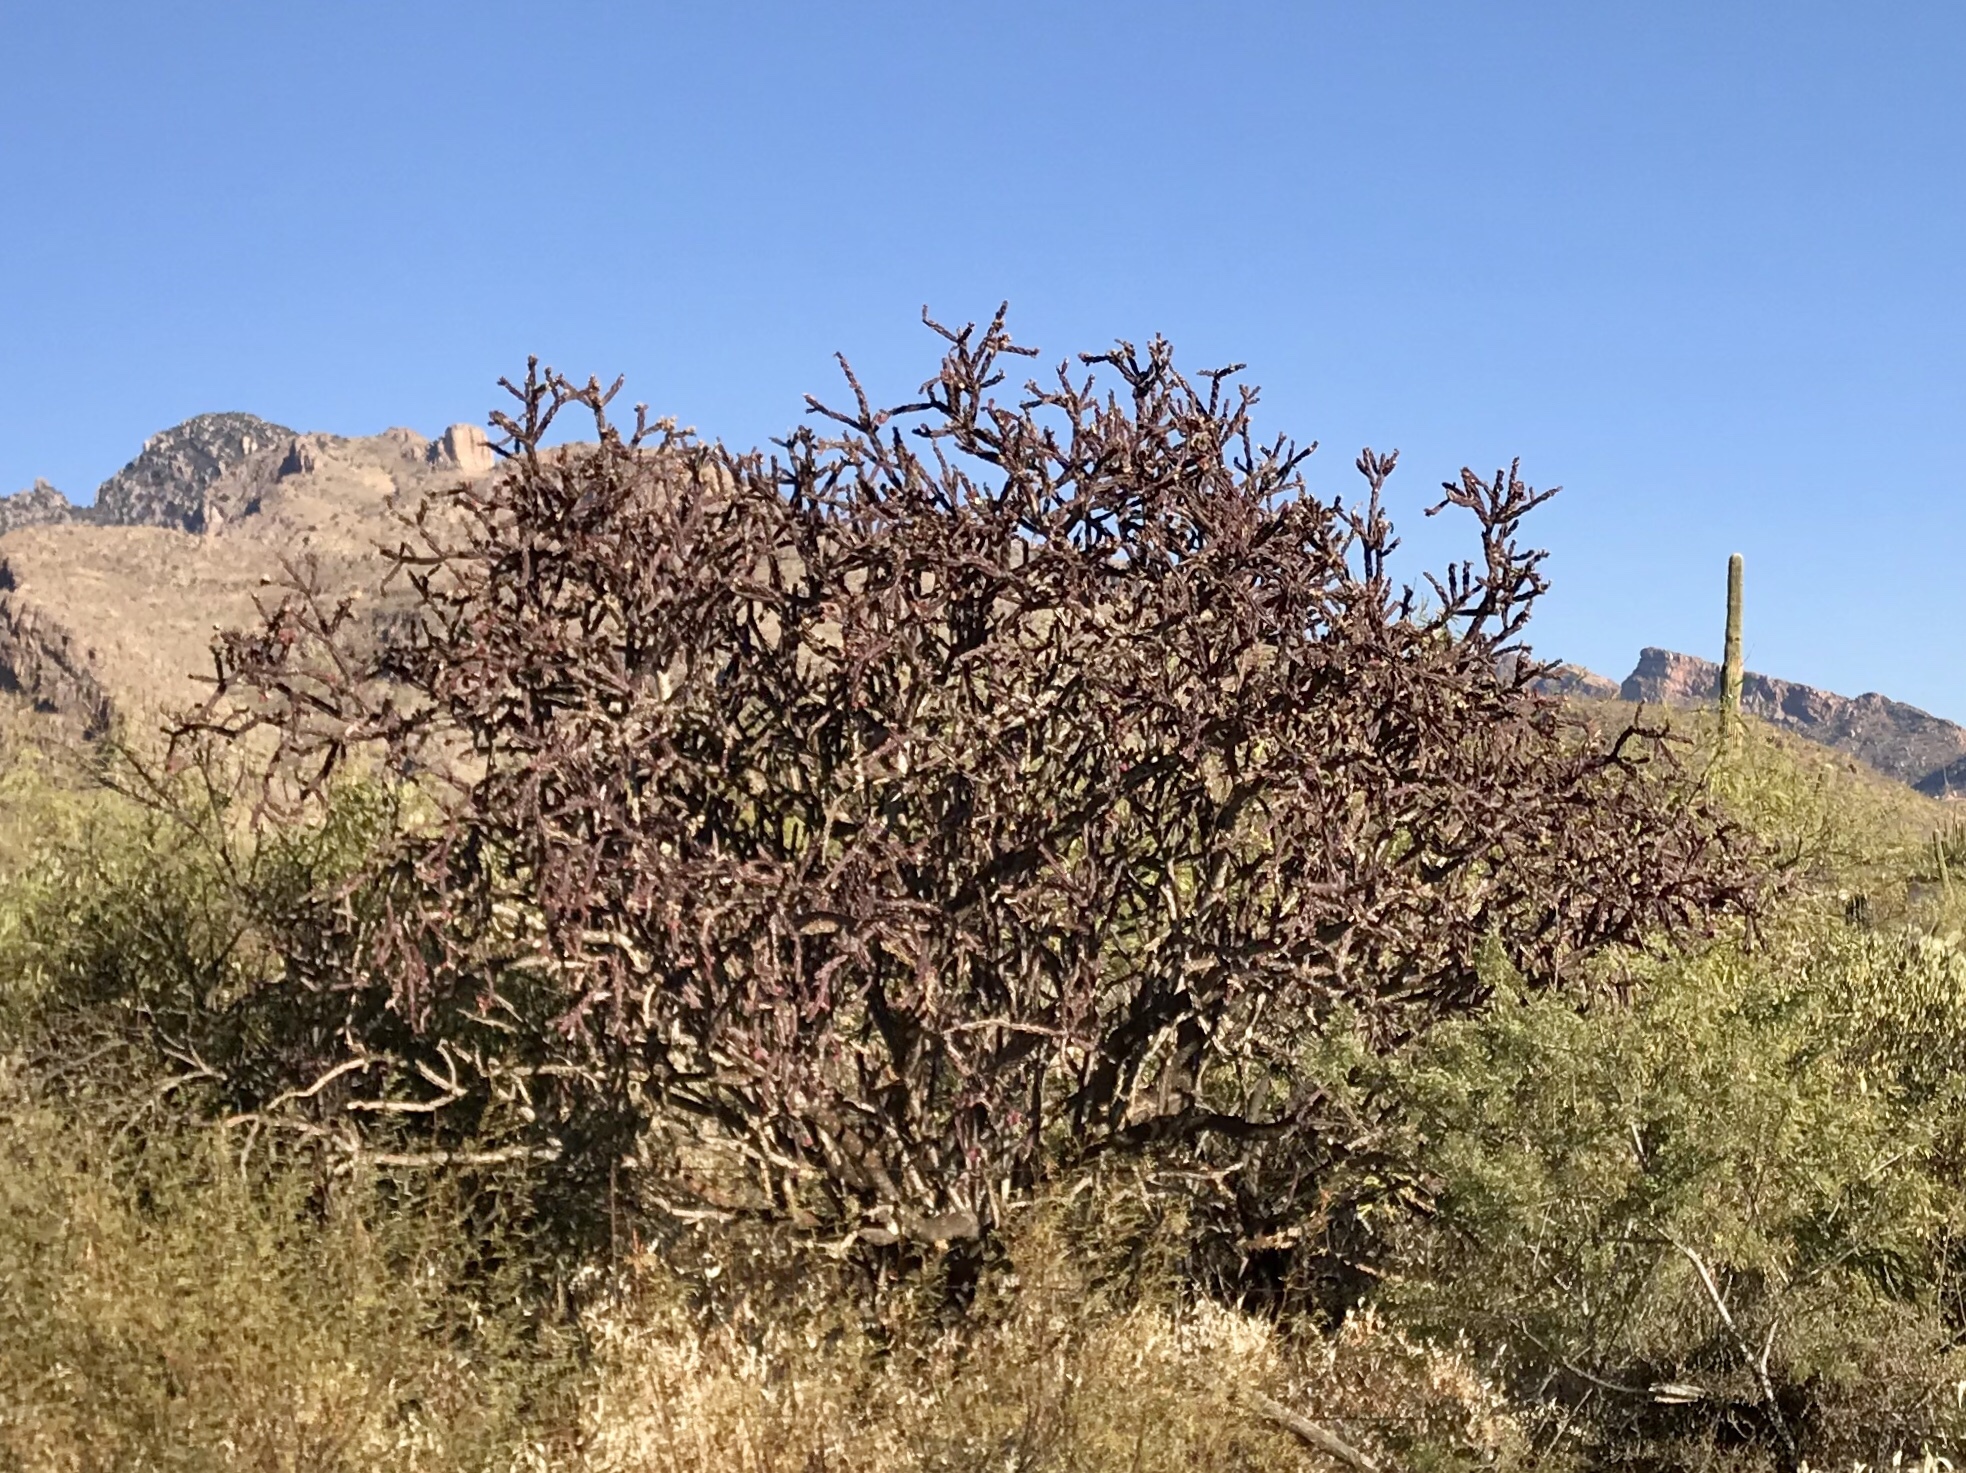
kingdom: Plantae
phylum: Tracheophyta
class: Magnoliopsida
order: Caryophyllales
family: Cactaceae
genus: Cylindropuntia
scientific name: Cylindropuntia thurberi
